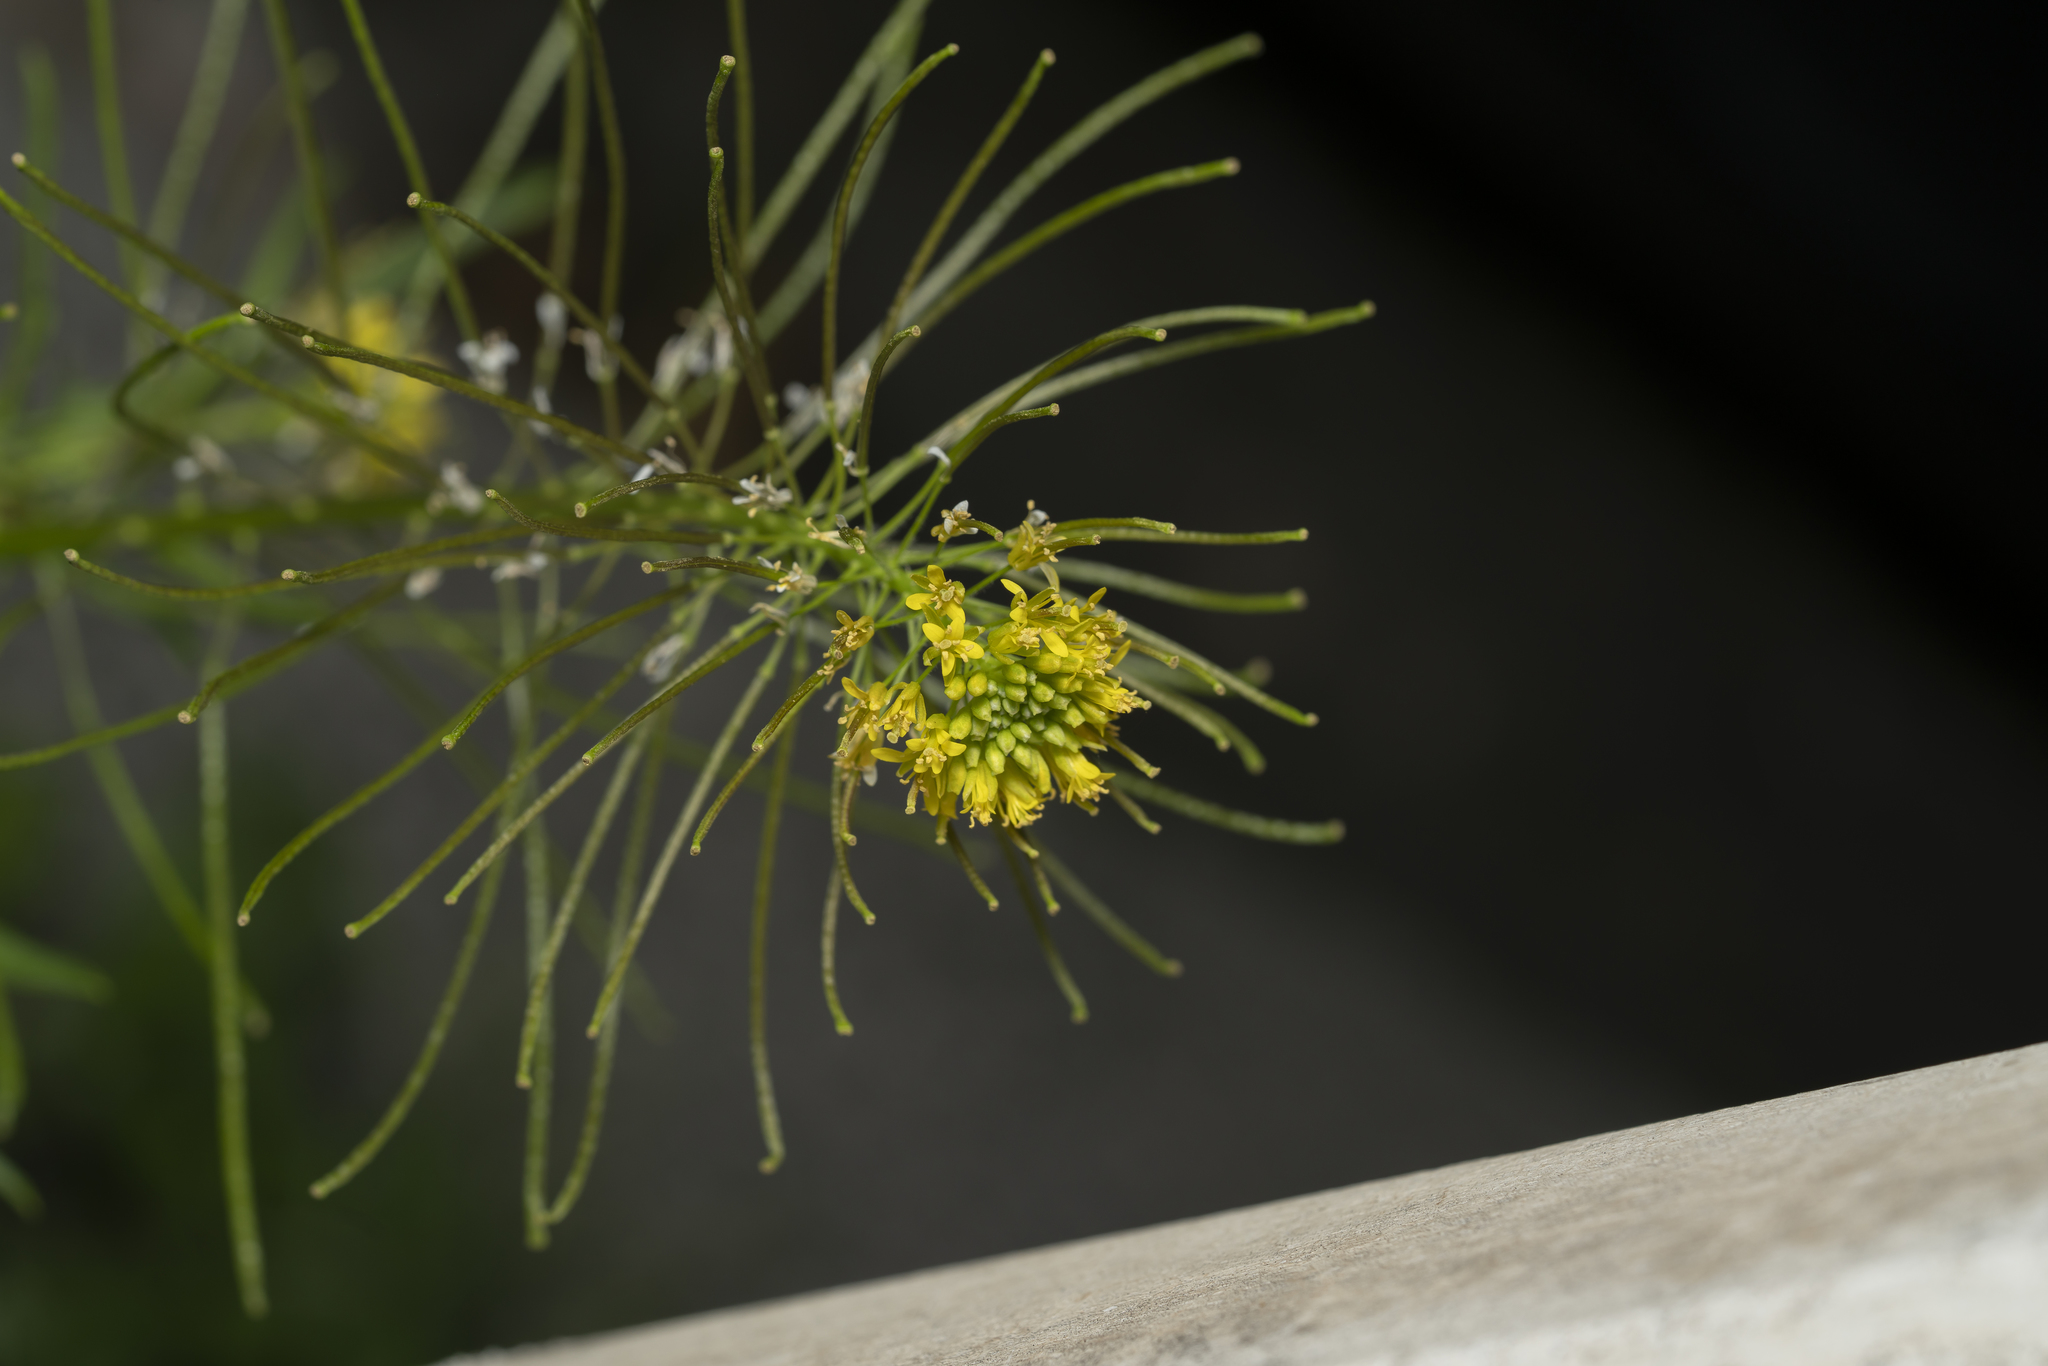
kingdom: Plantae
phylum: Tracheophyta
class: Magnoliopsida
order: Brassicales
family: Brassicaceae
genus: Sisymbrium
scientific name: Sisymbrium irio
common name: London rocket
